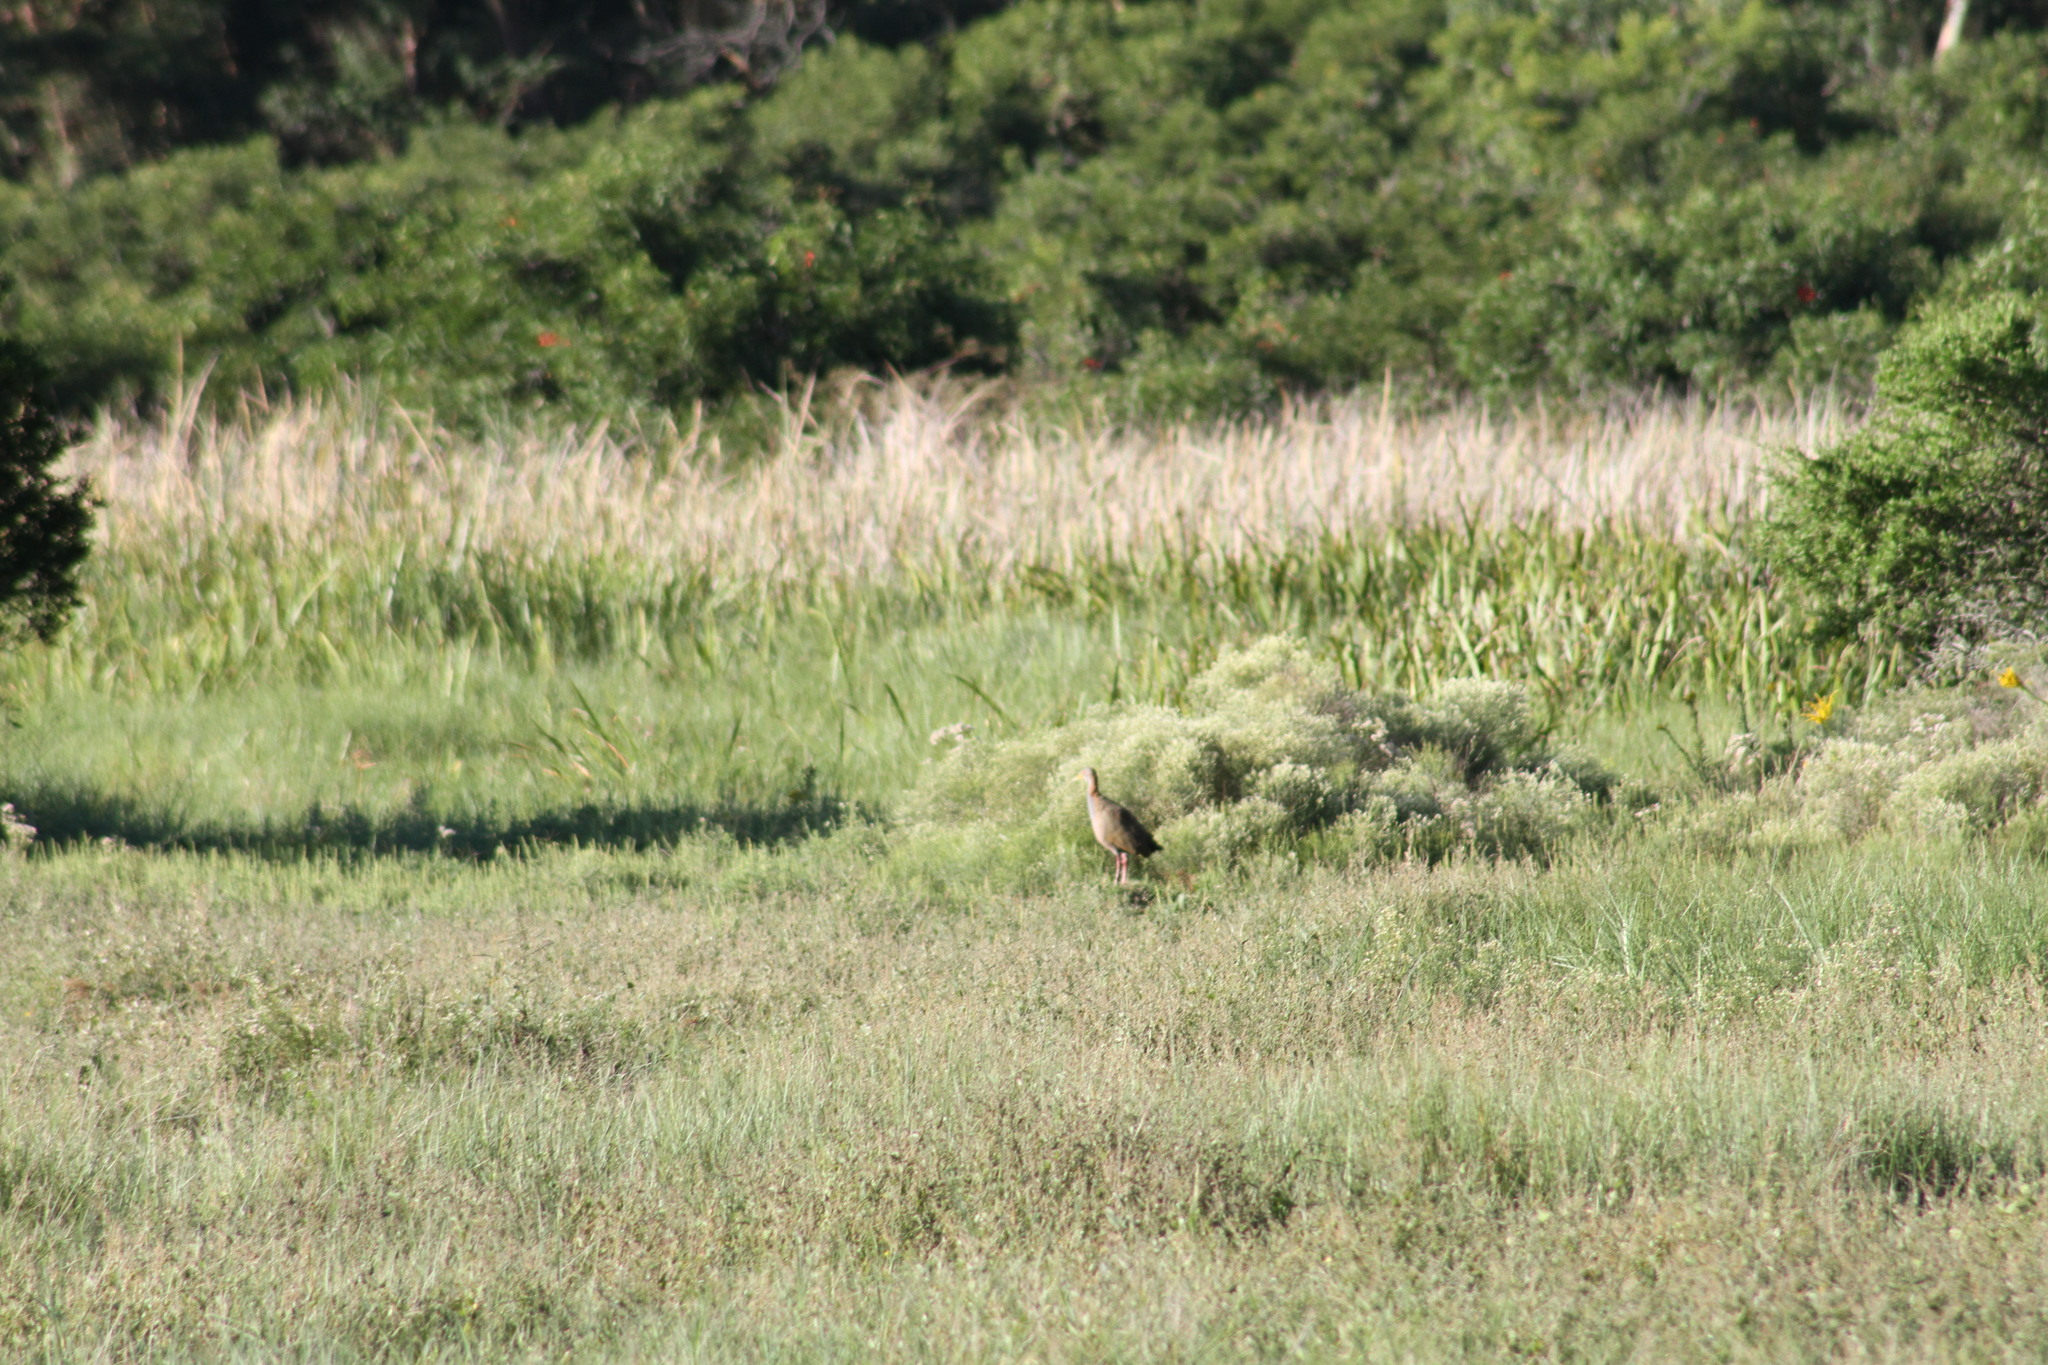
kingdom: Animalia
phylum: Chordata
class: Aves
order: Gruiformes
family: Rallidae
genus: Aramides
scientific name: Aramides ypecaha
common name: Giant wood rail
